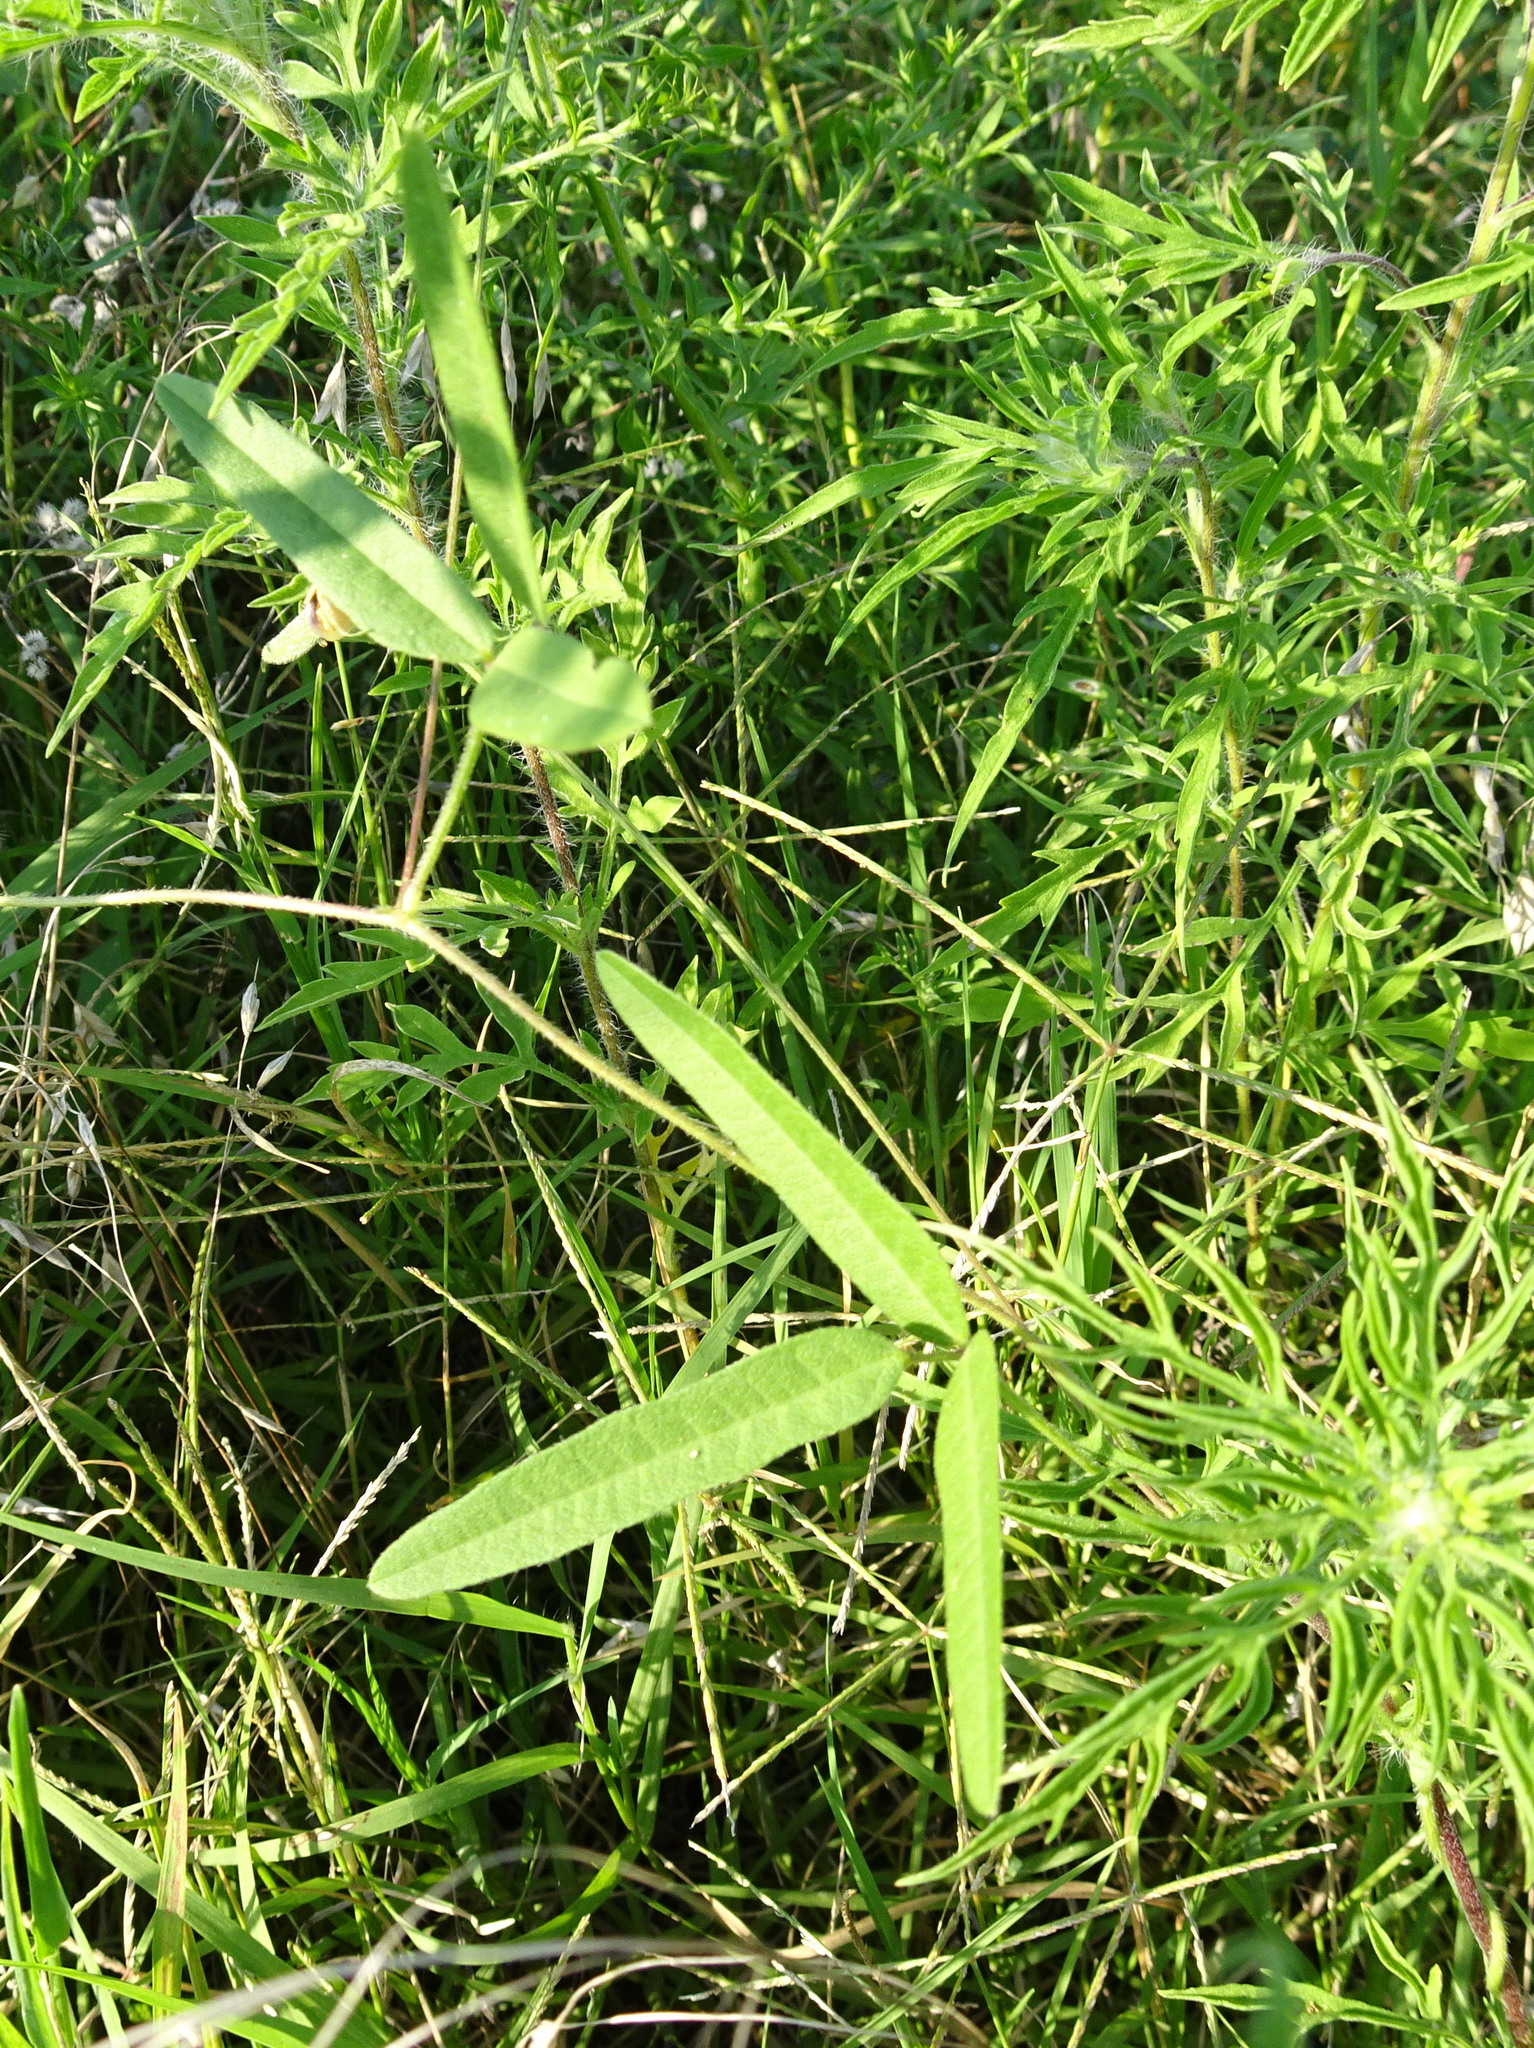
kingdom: Plantae
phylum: Tracheophyta
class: Magnoliopsida
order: Fabales
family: Fabaceae
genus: Strophostyles
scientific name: Strophostyles leiosperma
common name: Smooth-seed wild bean
